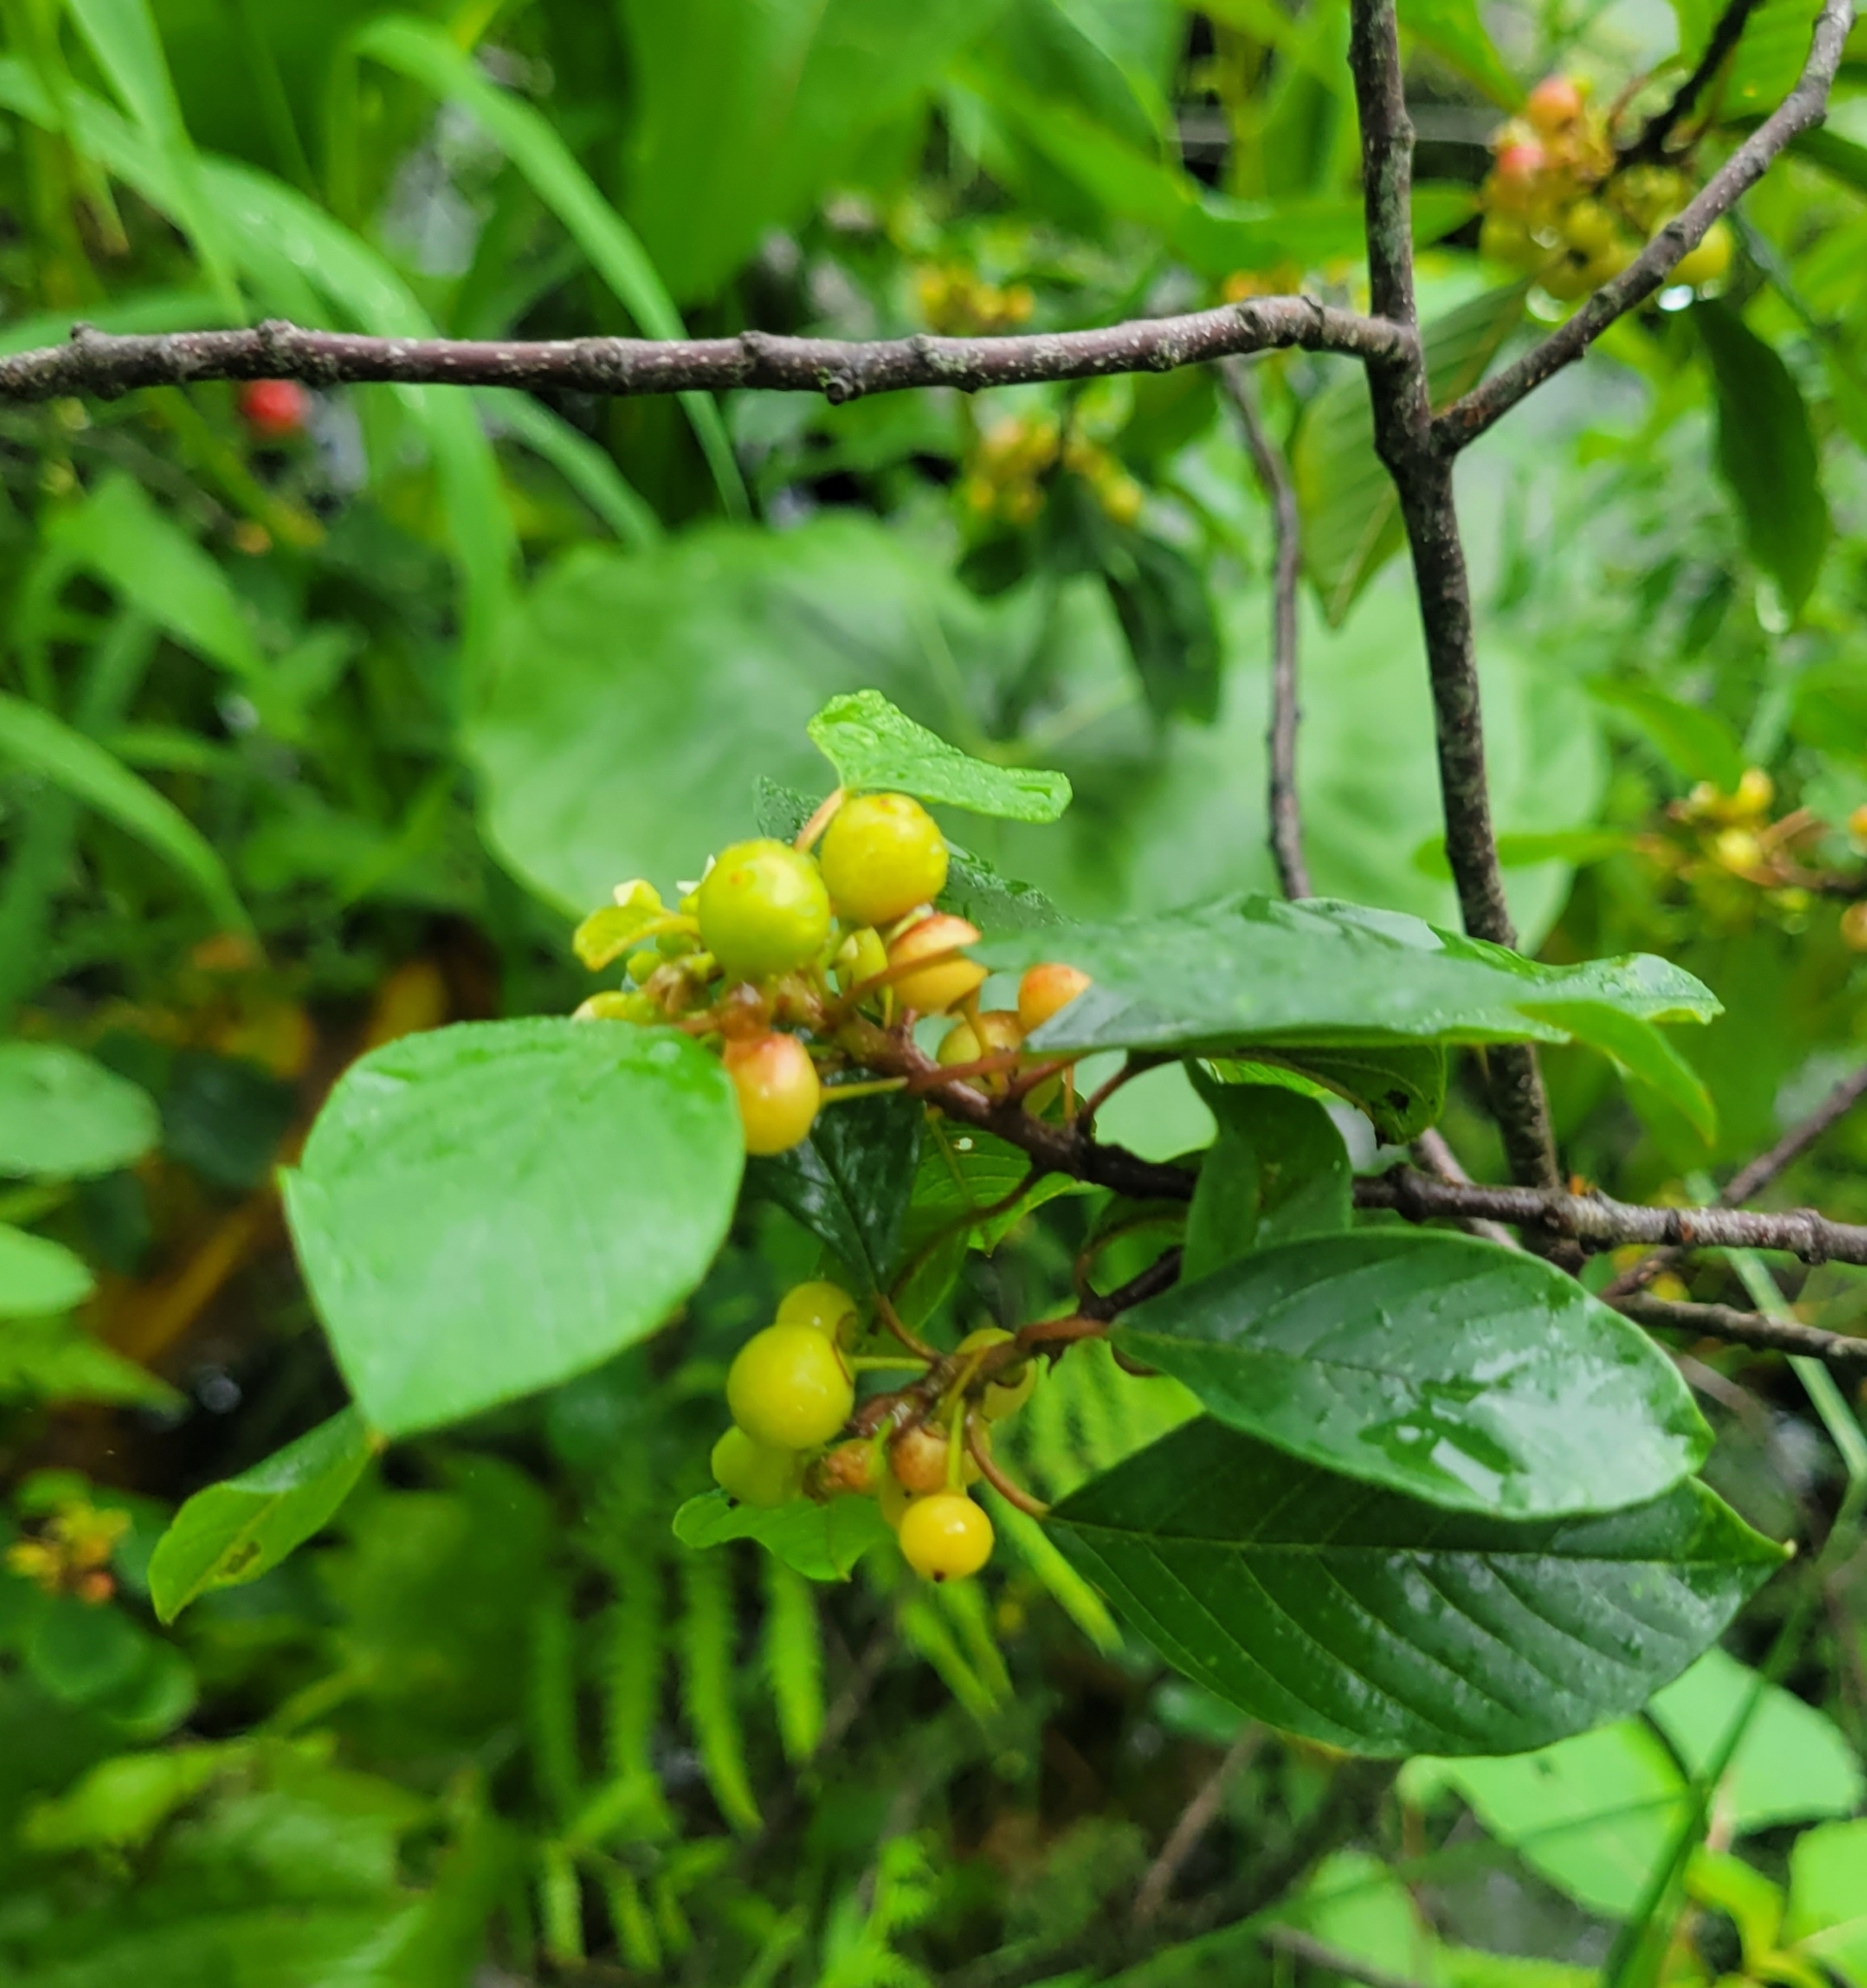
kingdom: Plantae
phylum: Tracheophyta
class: Magnoliopsida
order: Rosales
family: Rhamnaceae
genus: Frangula
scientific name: Frangula alnus
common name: Alder buckthorn
